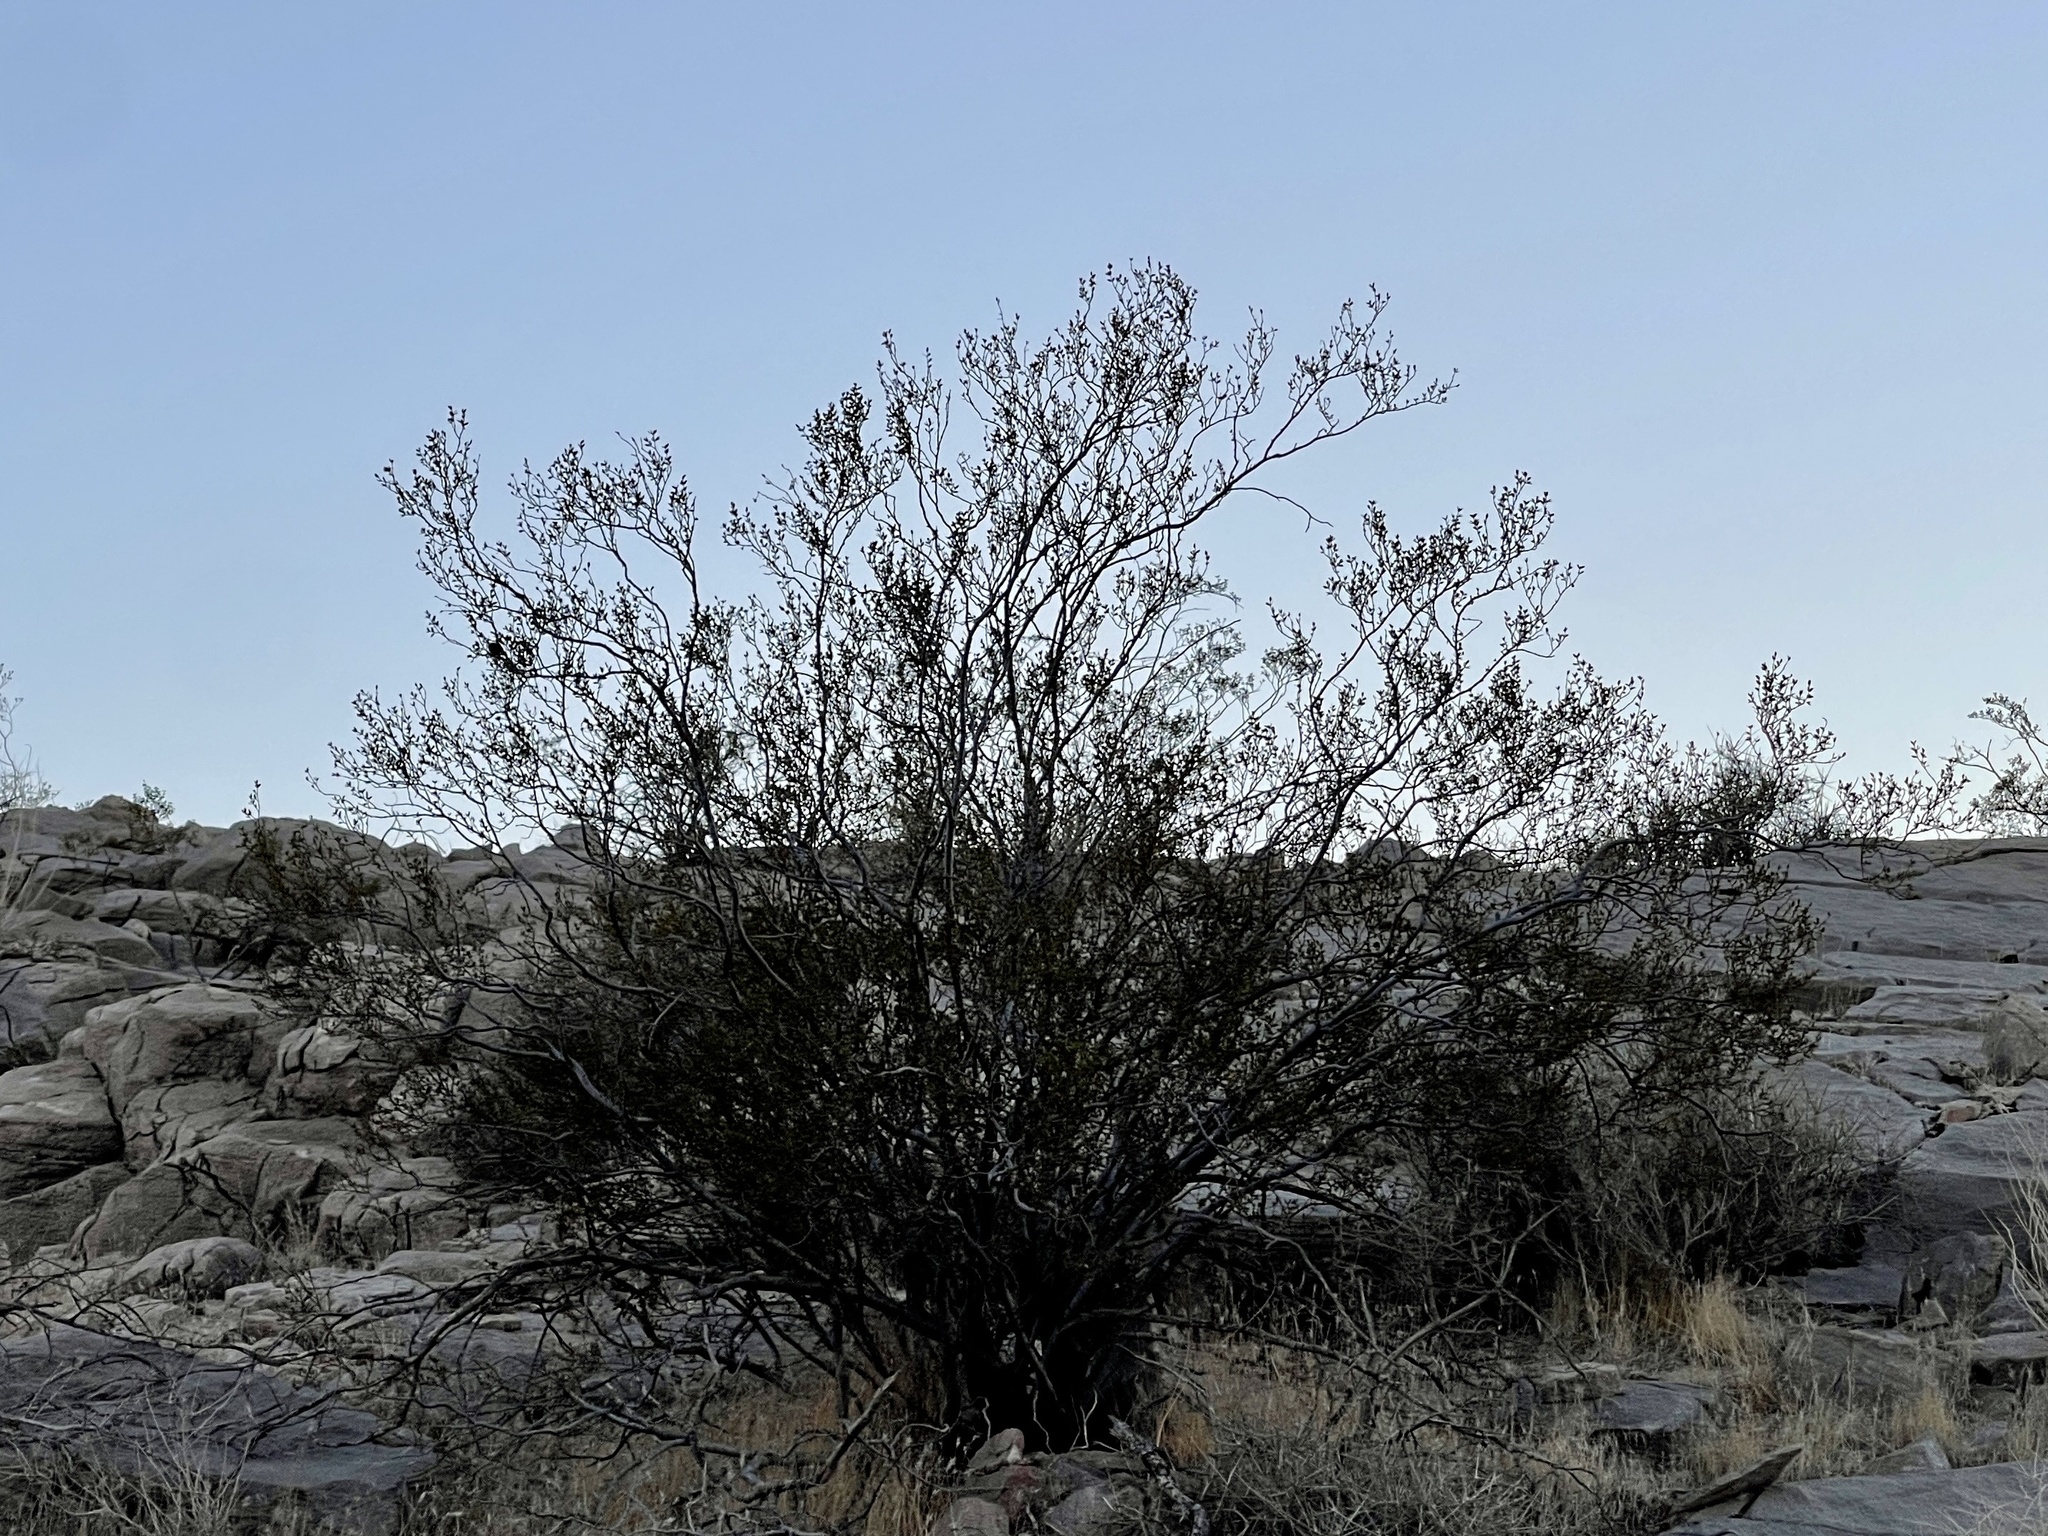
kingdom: Plantae
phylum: Tracheophyta
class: Magnoliopsida
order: Zygophyllales
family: Zygophyllaceae
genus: Larrea
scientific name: Larrea tridentata
